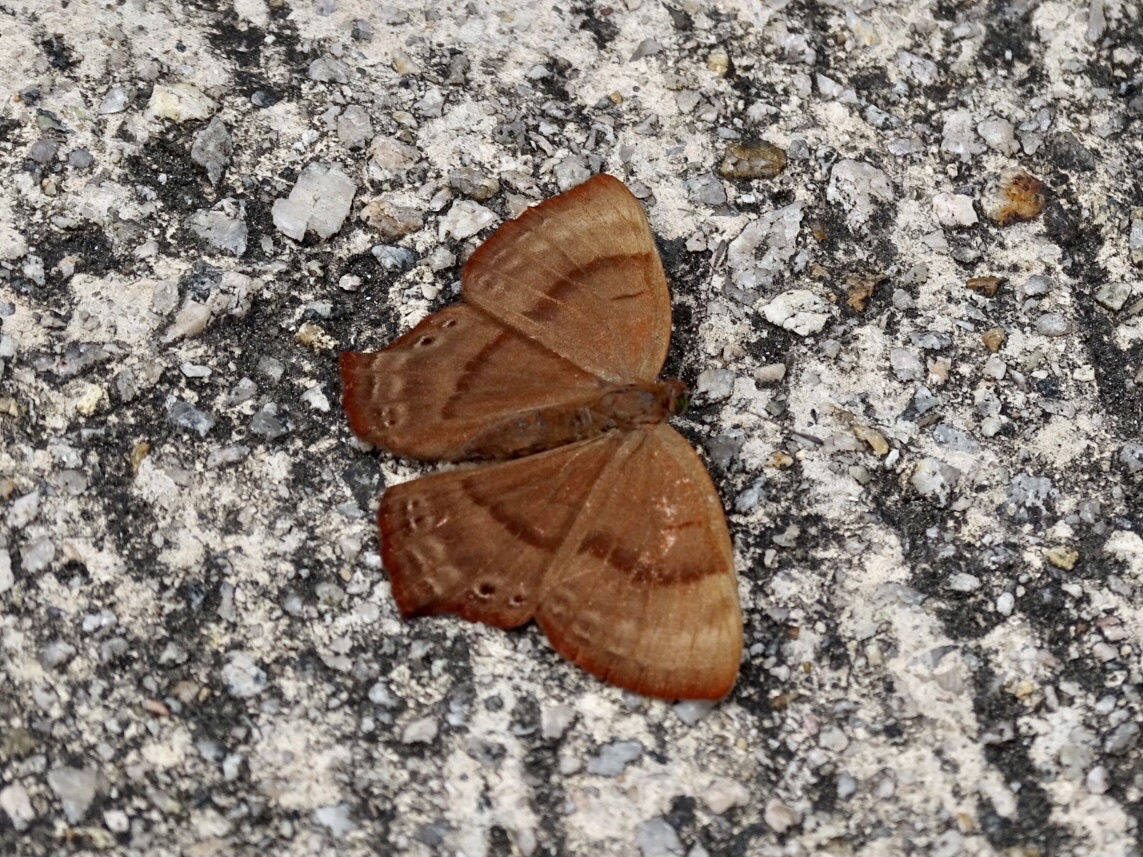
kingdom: Animalia
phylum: Arthropoda
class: Insecta
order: Lepidoptera
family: Lycaenidae
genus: Abisara
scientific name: Abisara echeria
